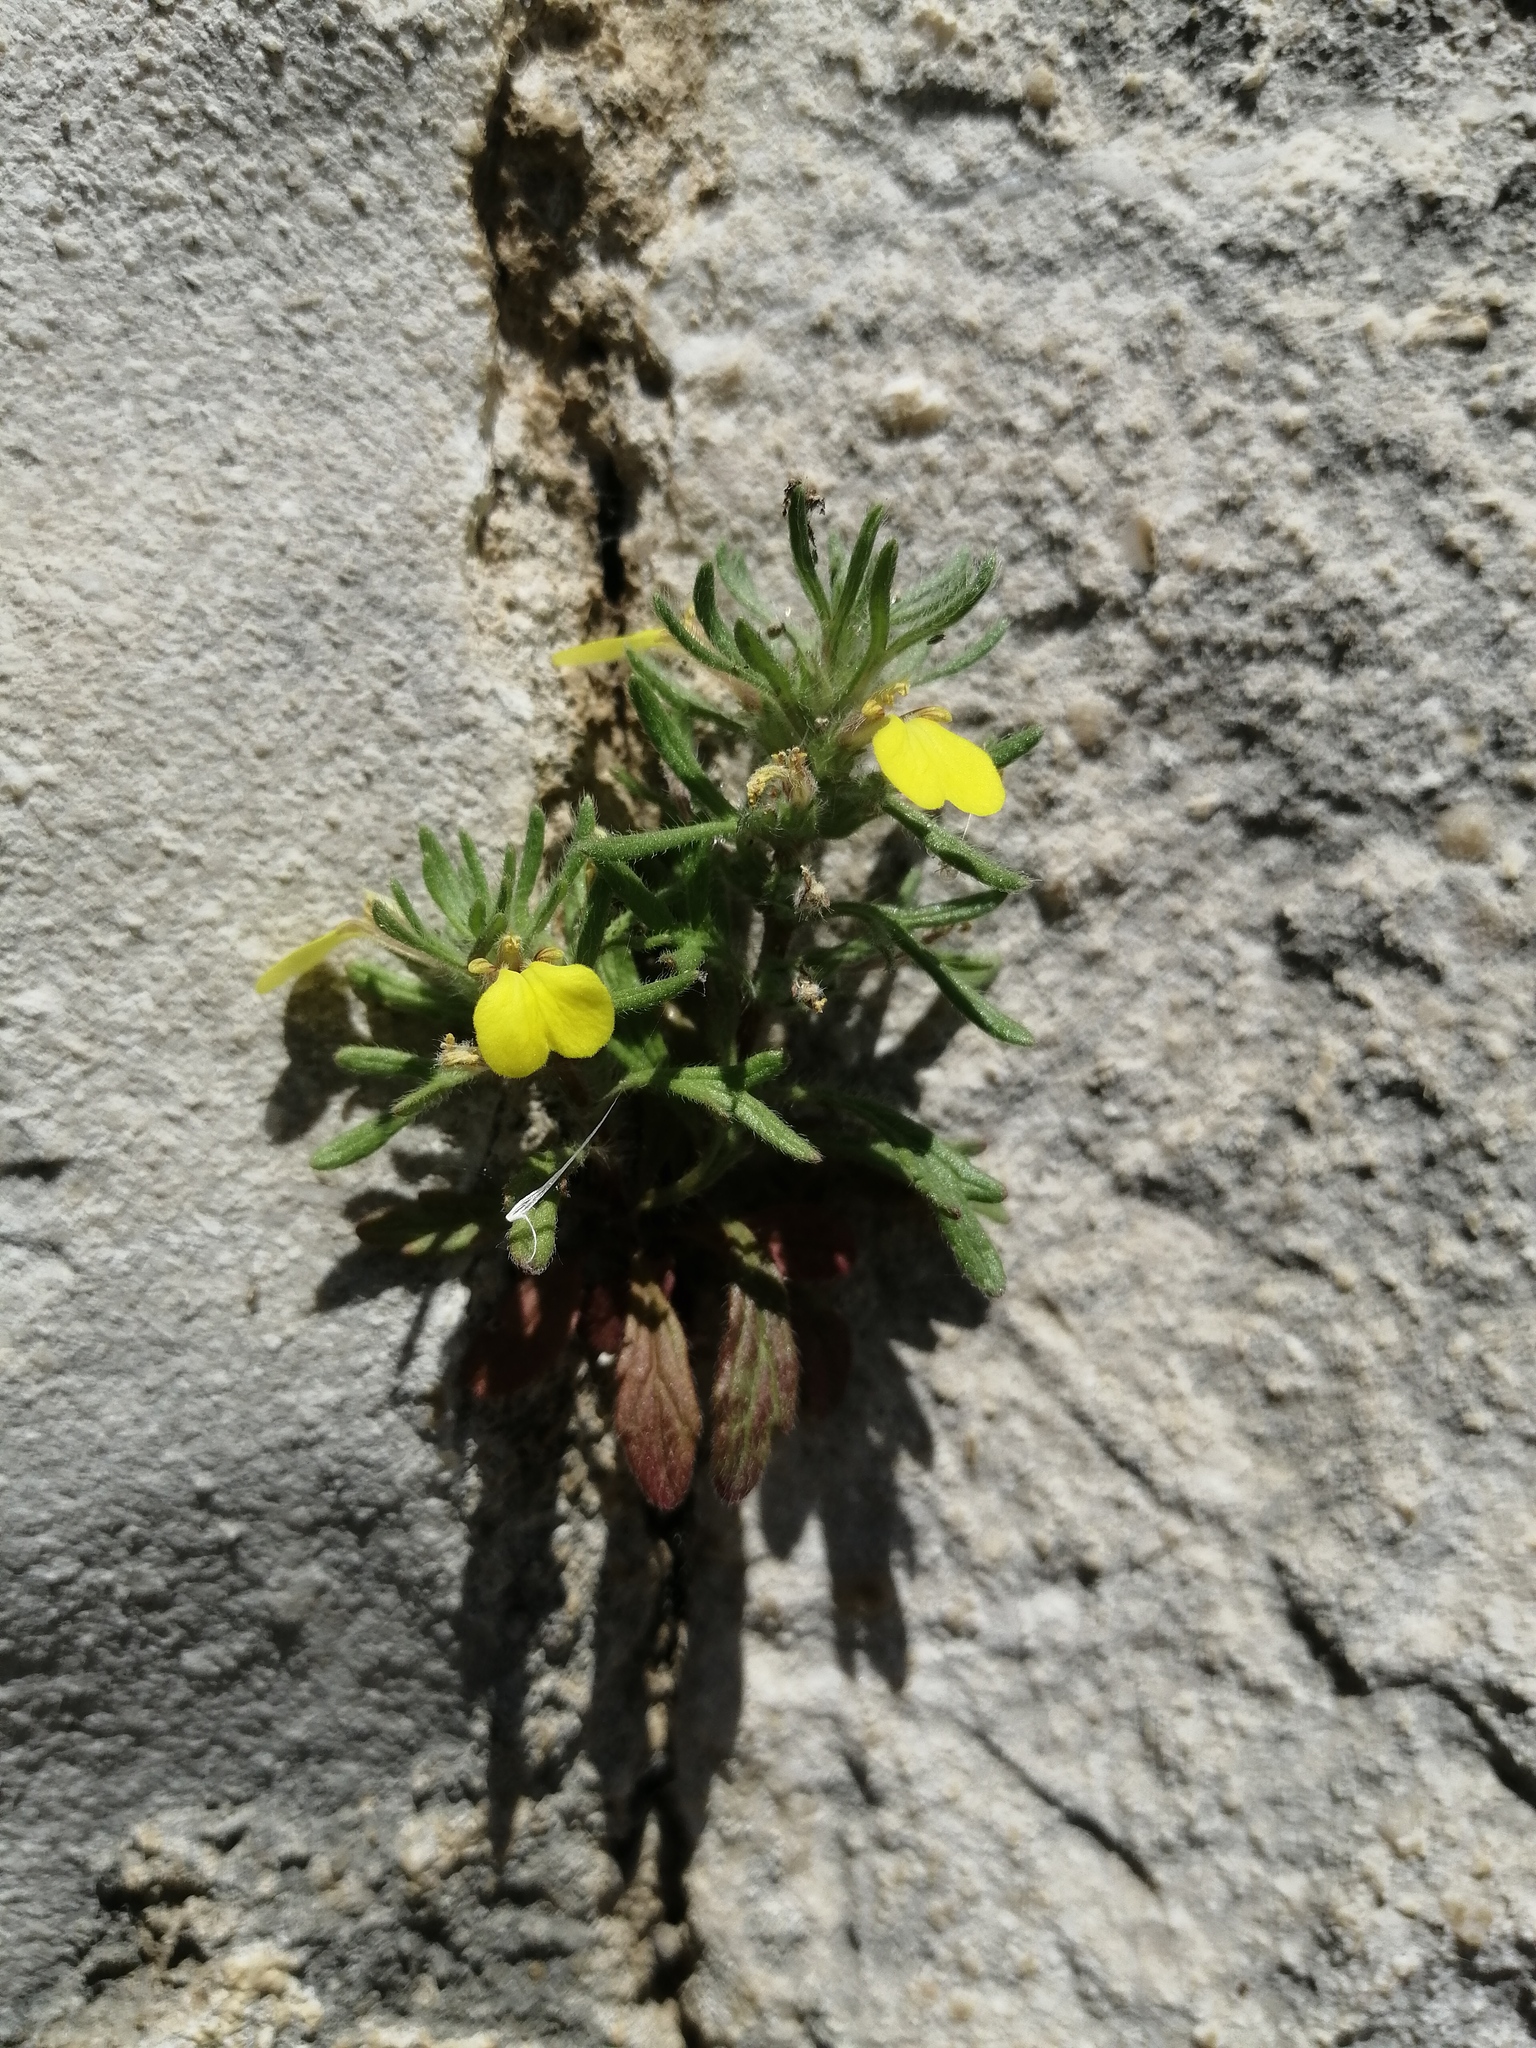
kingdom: Plantae
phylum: Tracheophyta
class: Magnoliopsida
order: Lamiales
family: Lamiaceae
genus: Ajuga
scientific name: Ajuga chamaepitys
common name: Ground-pine
